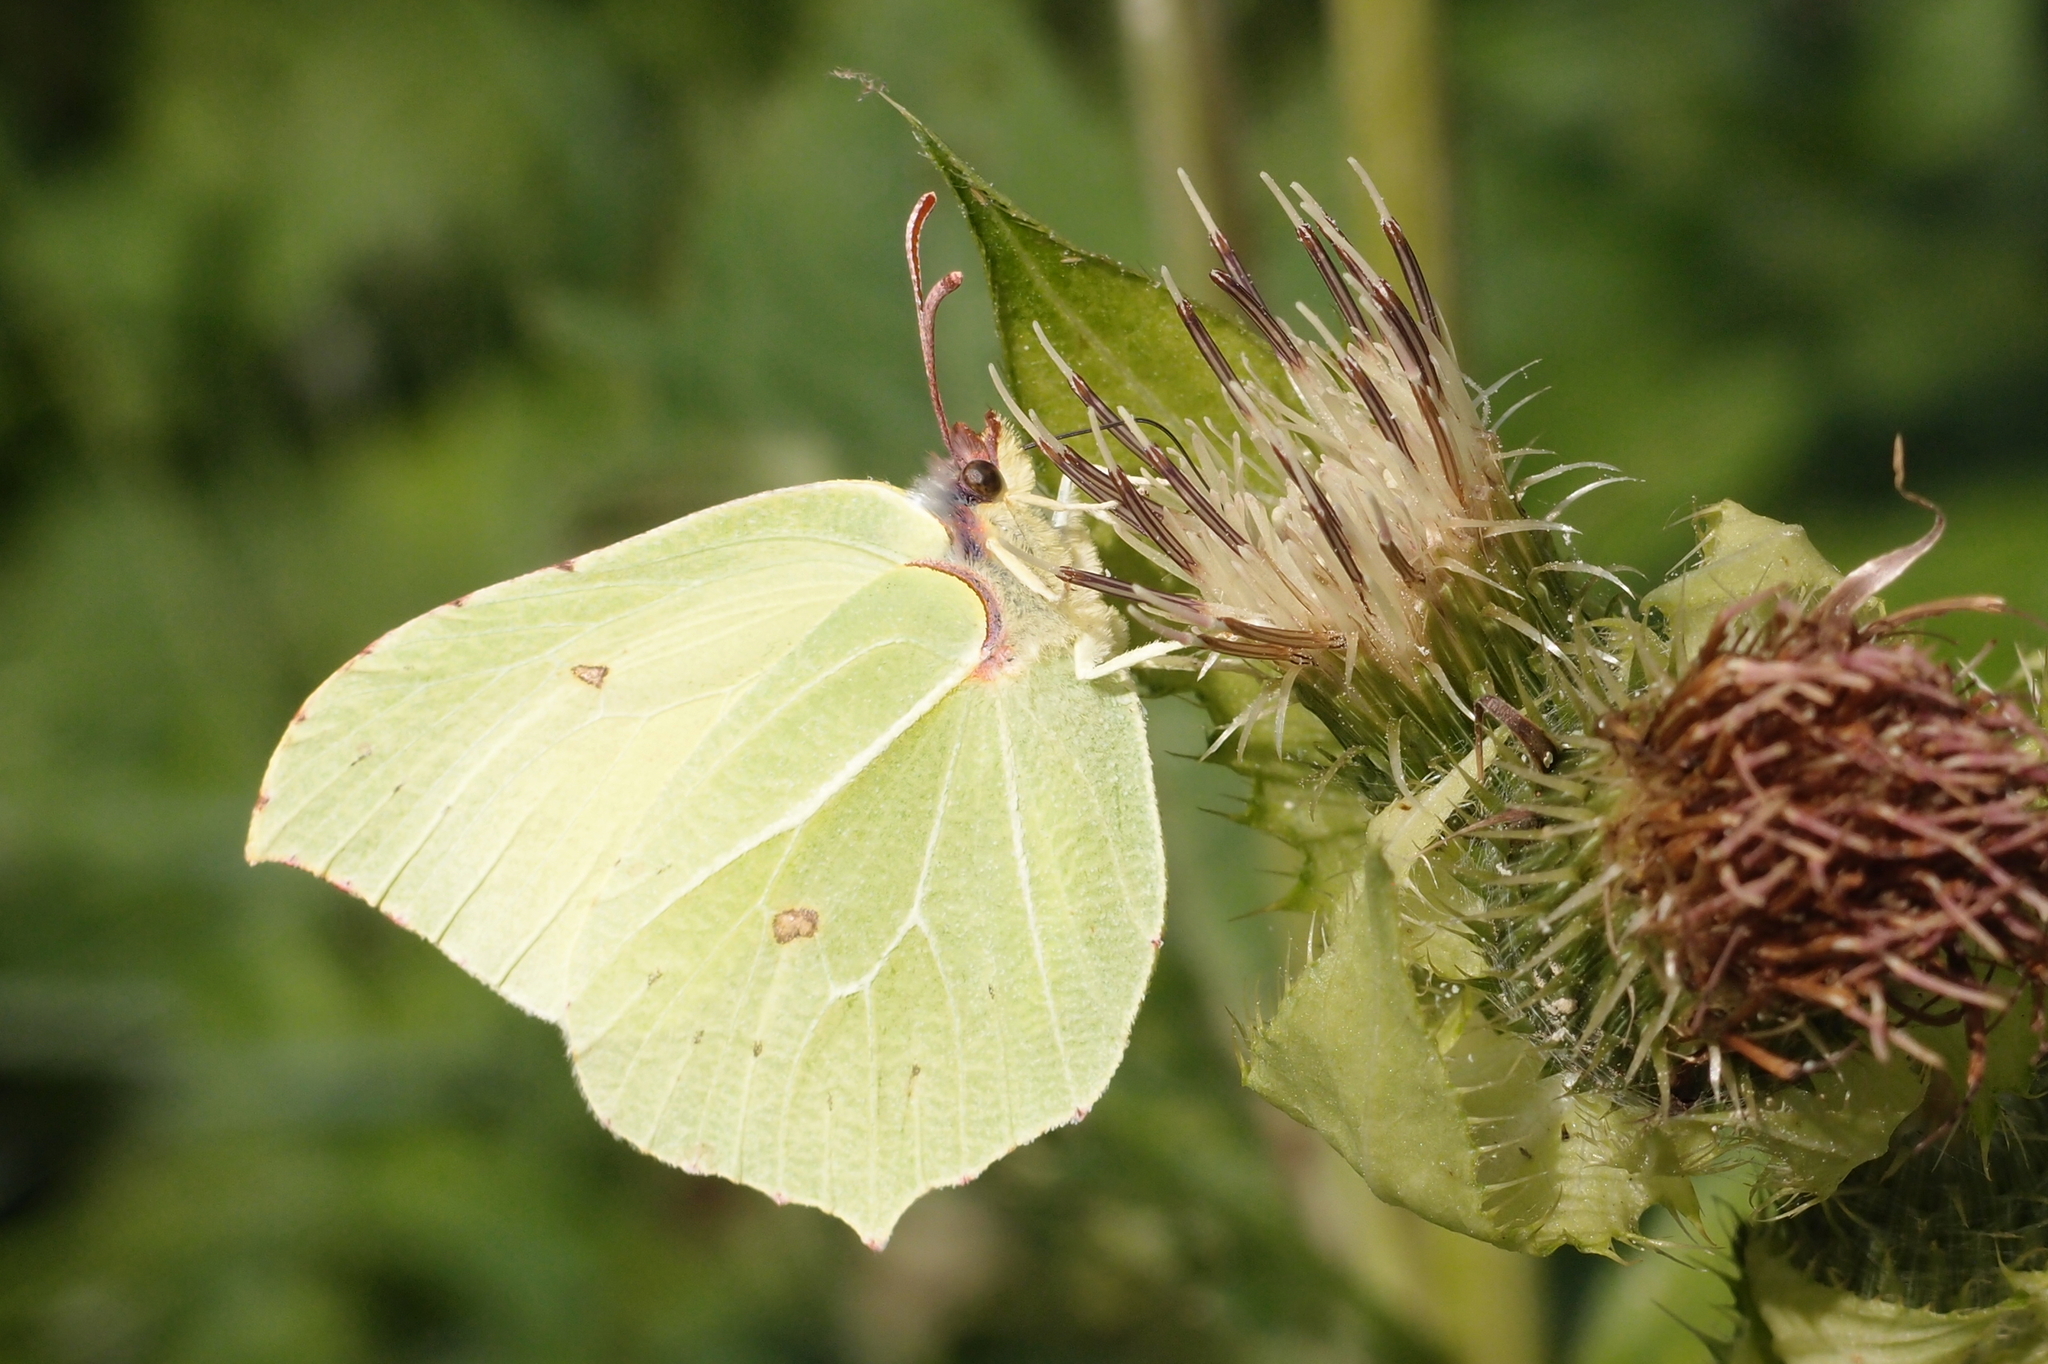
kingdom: Animalia
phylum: Arthropoda
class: Insecta
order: Lepidoptera
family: Pieridae
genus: Gonepteryx
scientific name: Gonepteryx rhamni
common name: Brimstone
